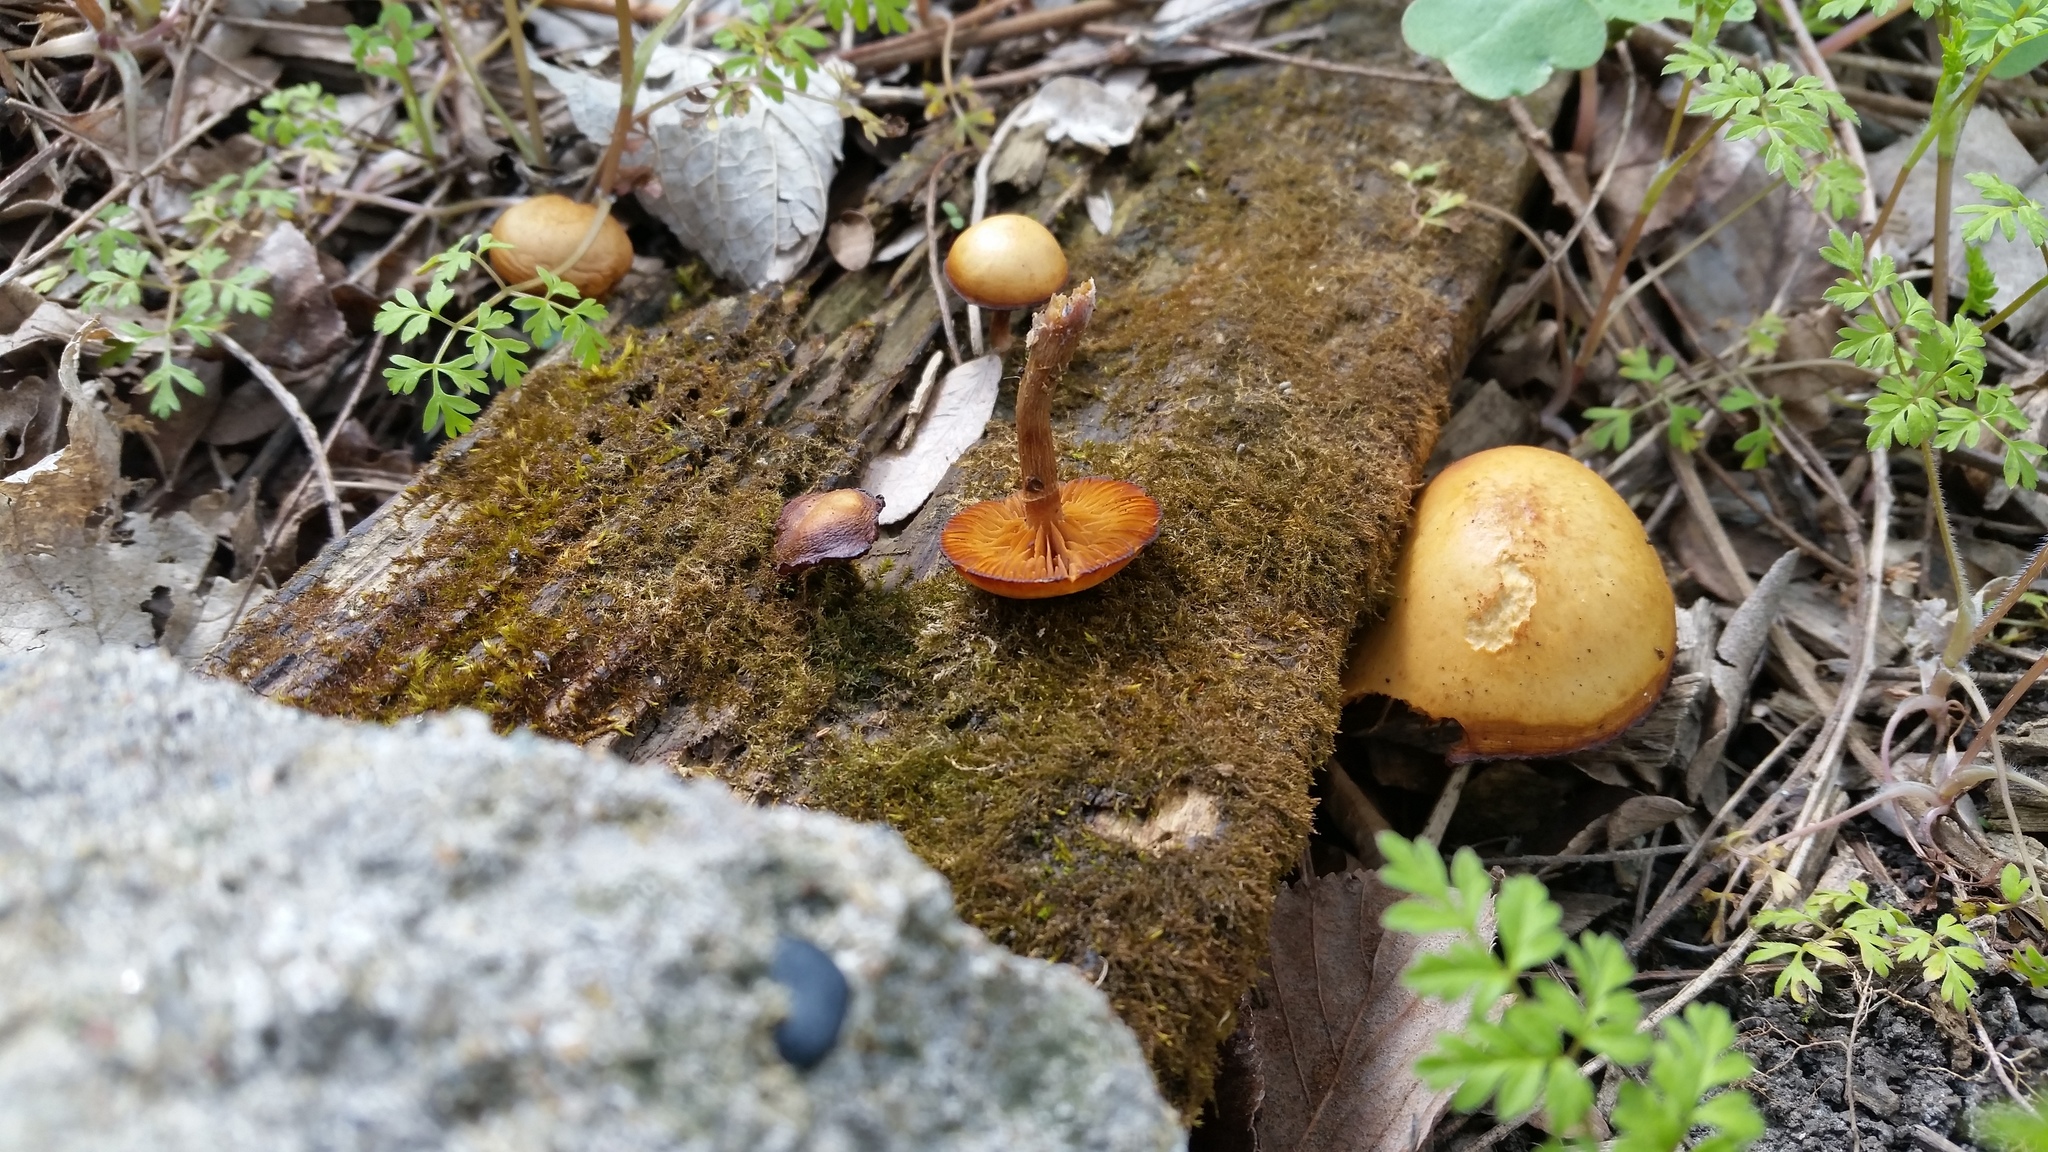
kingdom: Fungi
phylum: Basidiomycota
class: Agaricomycetes
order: Agaricales
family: Hymenogastraceae
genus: Galerina
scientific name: Galerina marginata
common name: Funeral bell
